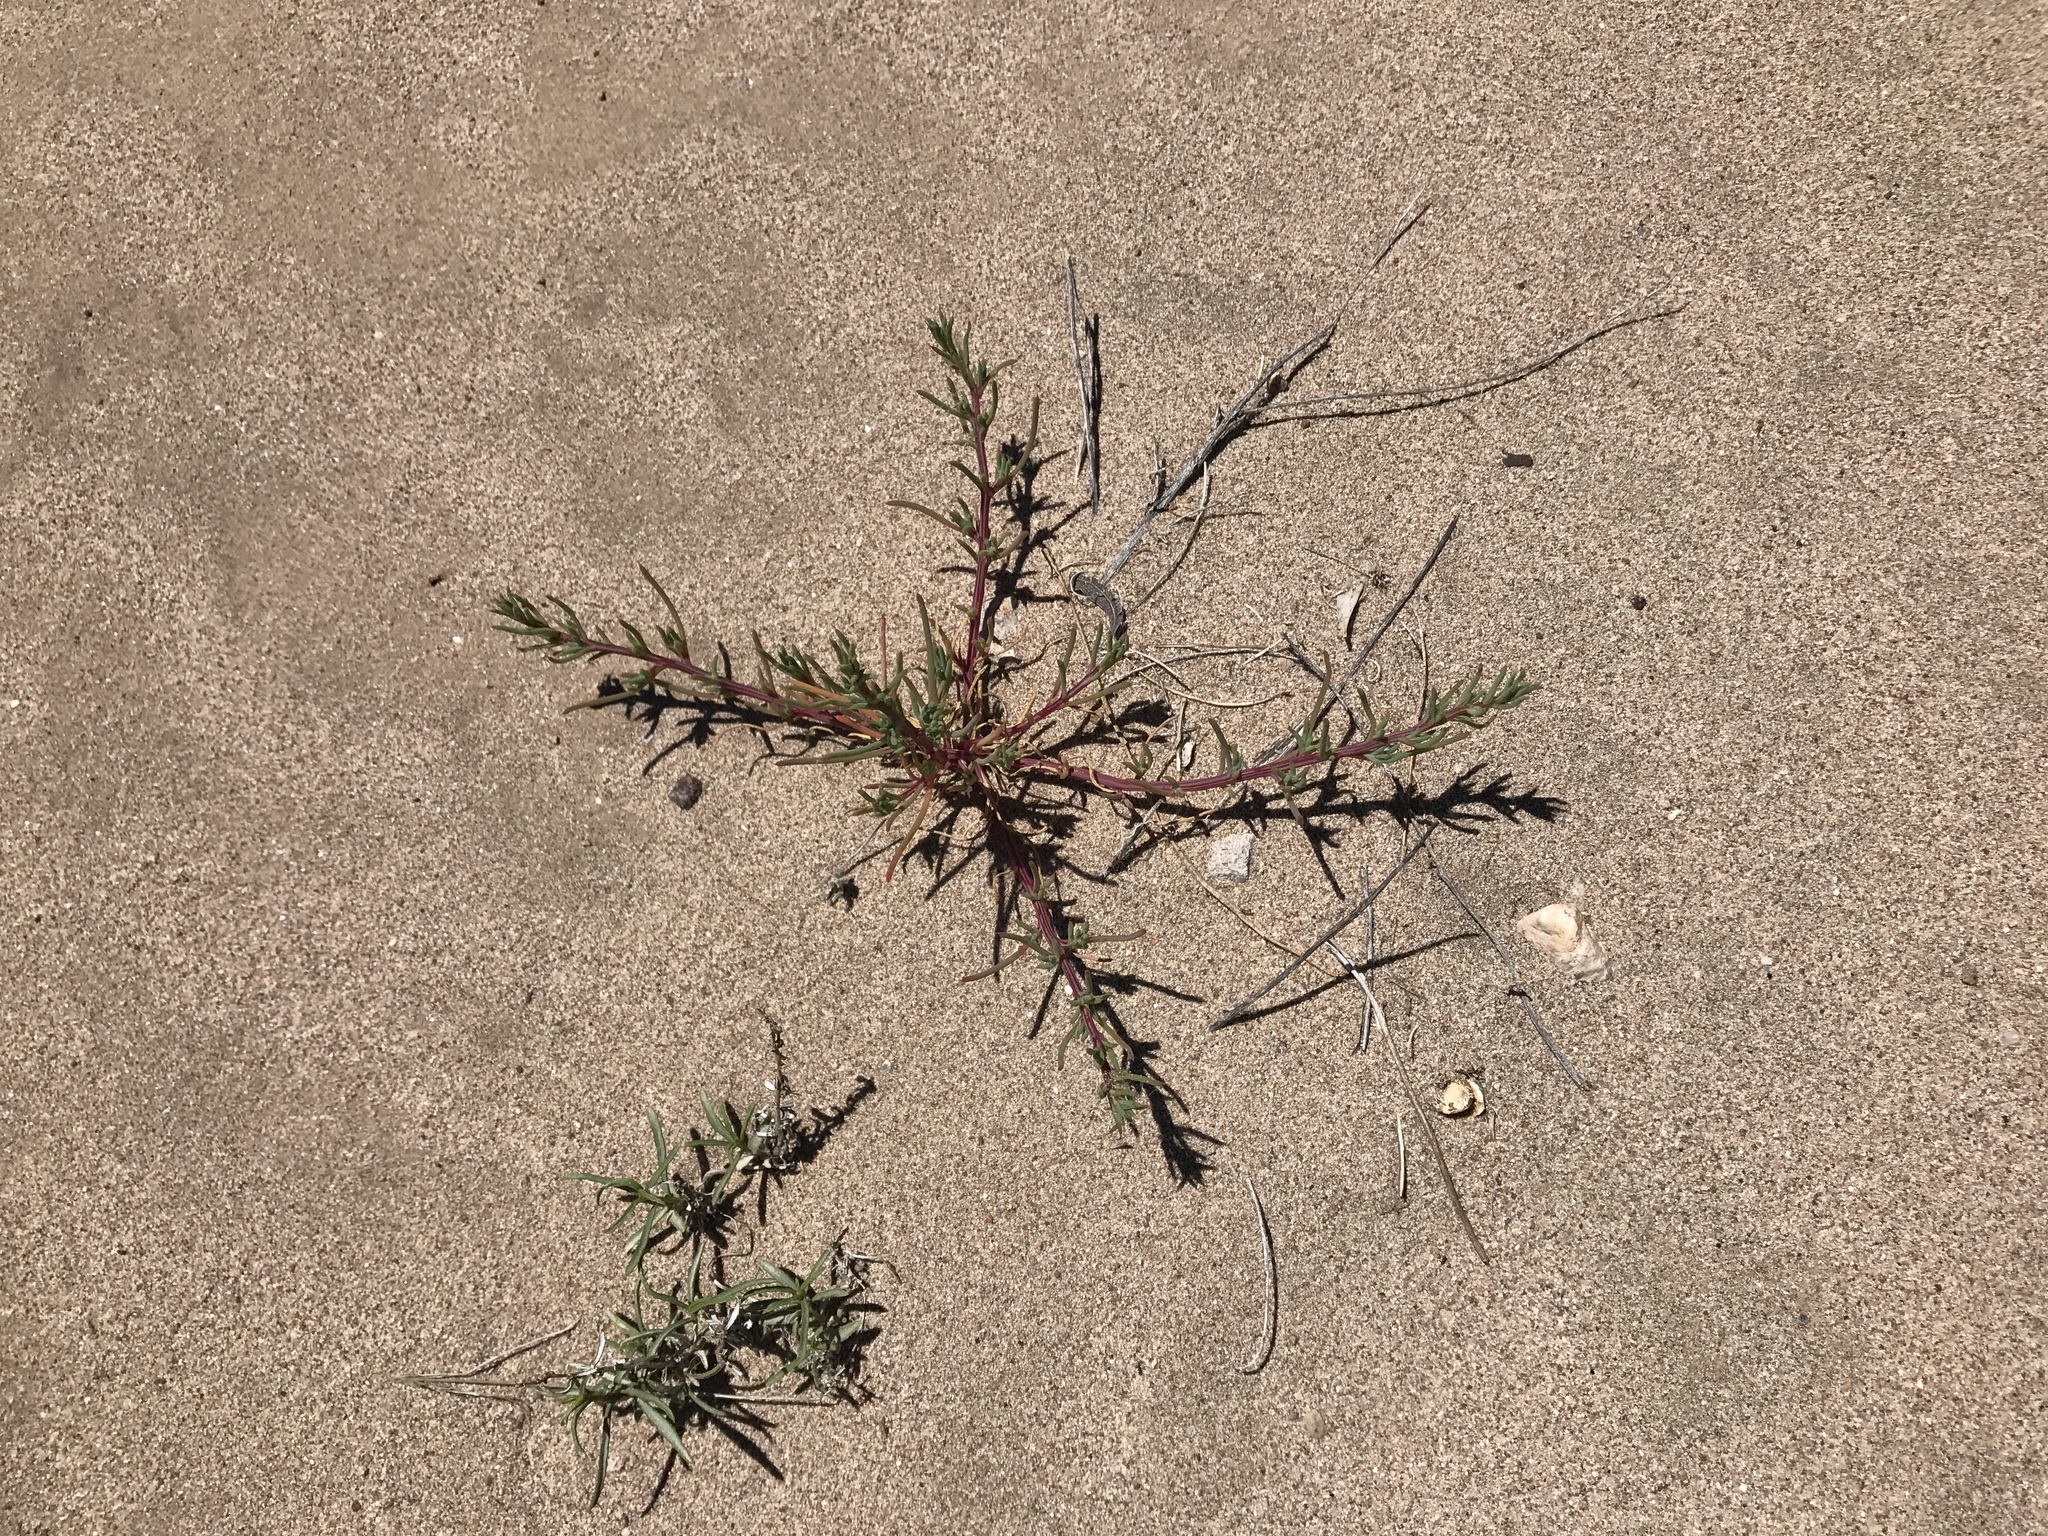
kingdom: Plantae
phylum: Tracheophyta
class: Magnoliopsida
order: Caryophyllales
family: Amaranthaceae
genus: Salsola
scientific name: Salsola tragus
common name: Prickly russian thistle
